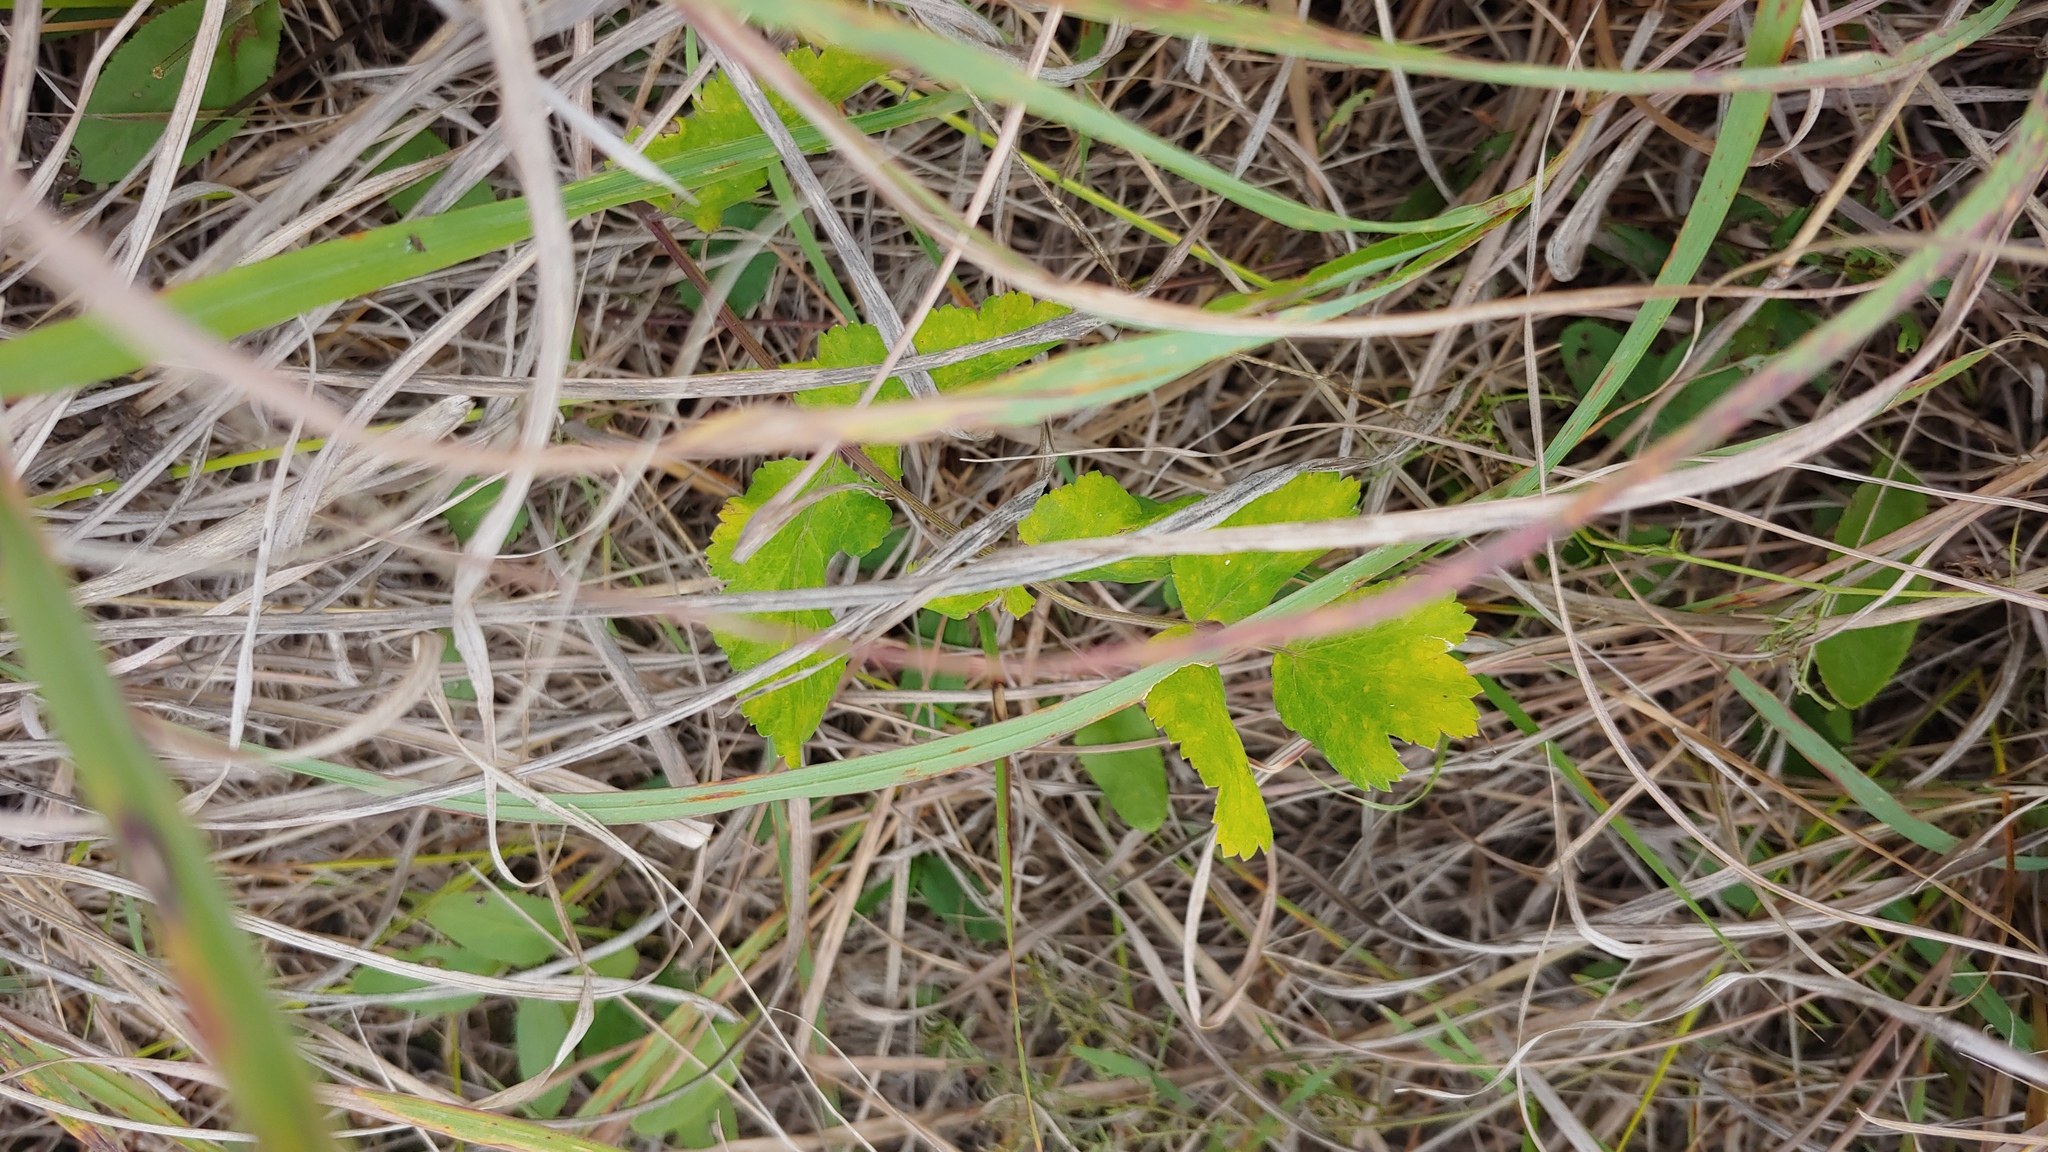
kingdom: Plantae
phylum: Tracheophyta
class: Magnoliopsida
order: Apiales
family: Apiaceae
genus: Pastinaca
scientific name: Pastinaca sativa
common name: Wild parsnip
